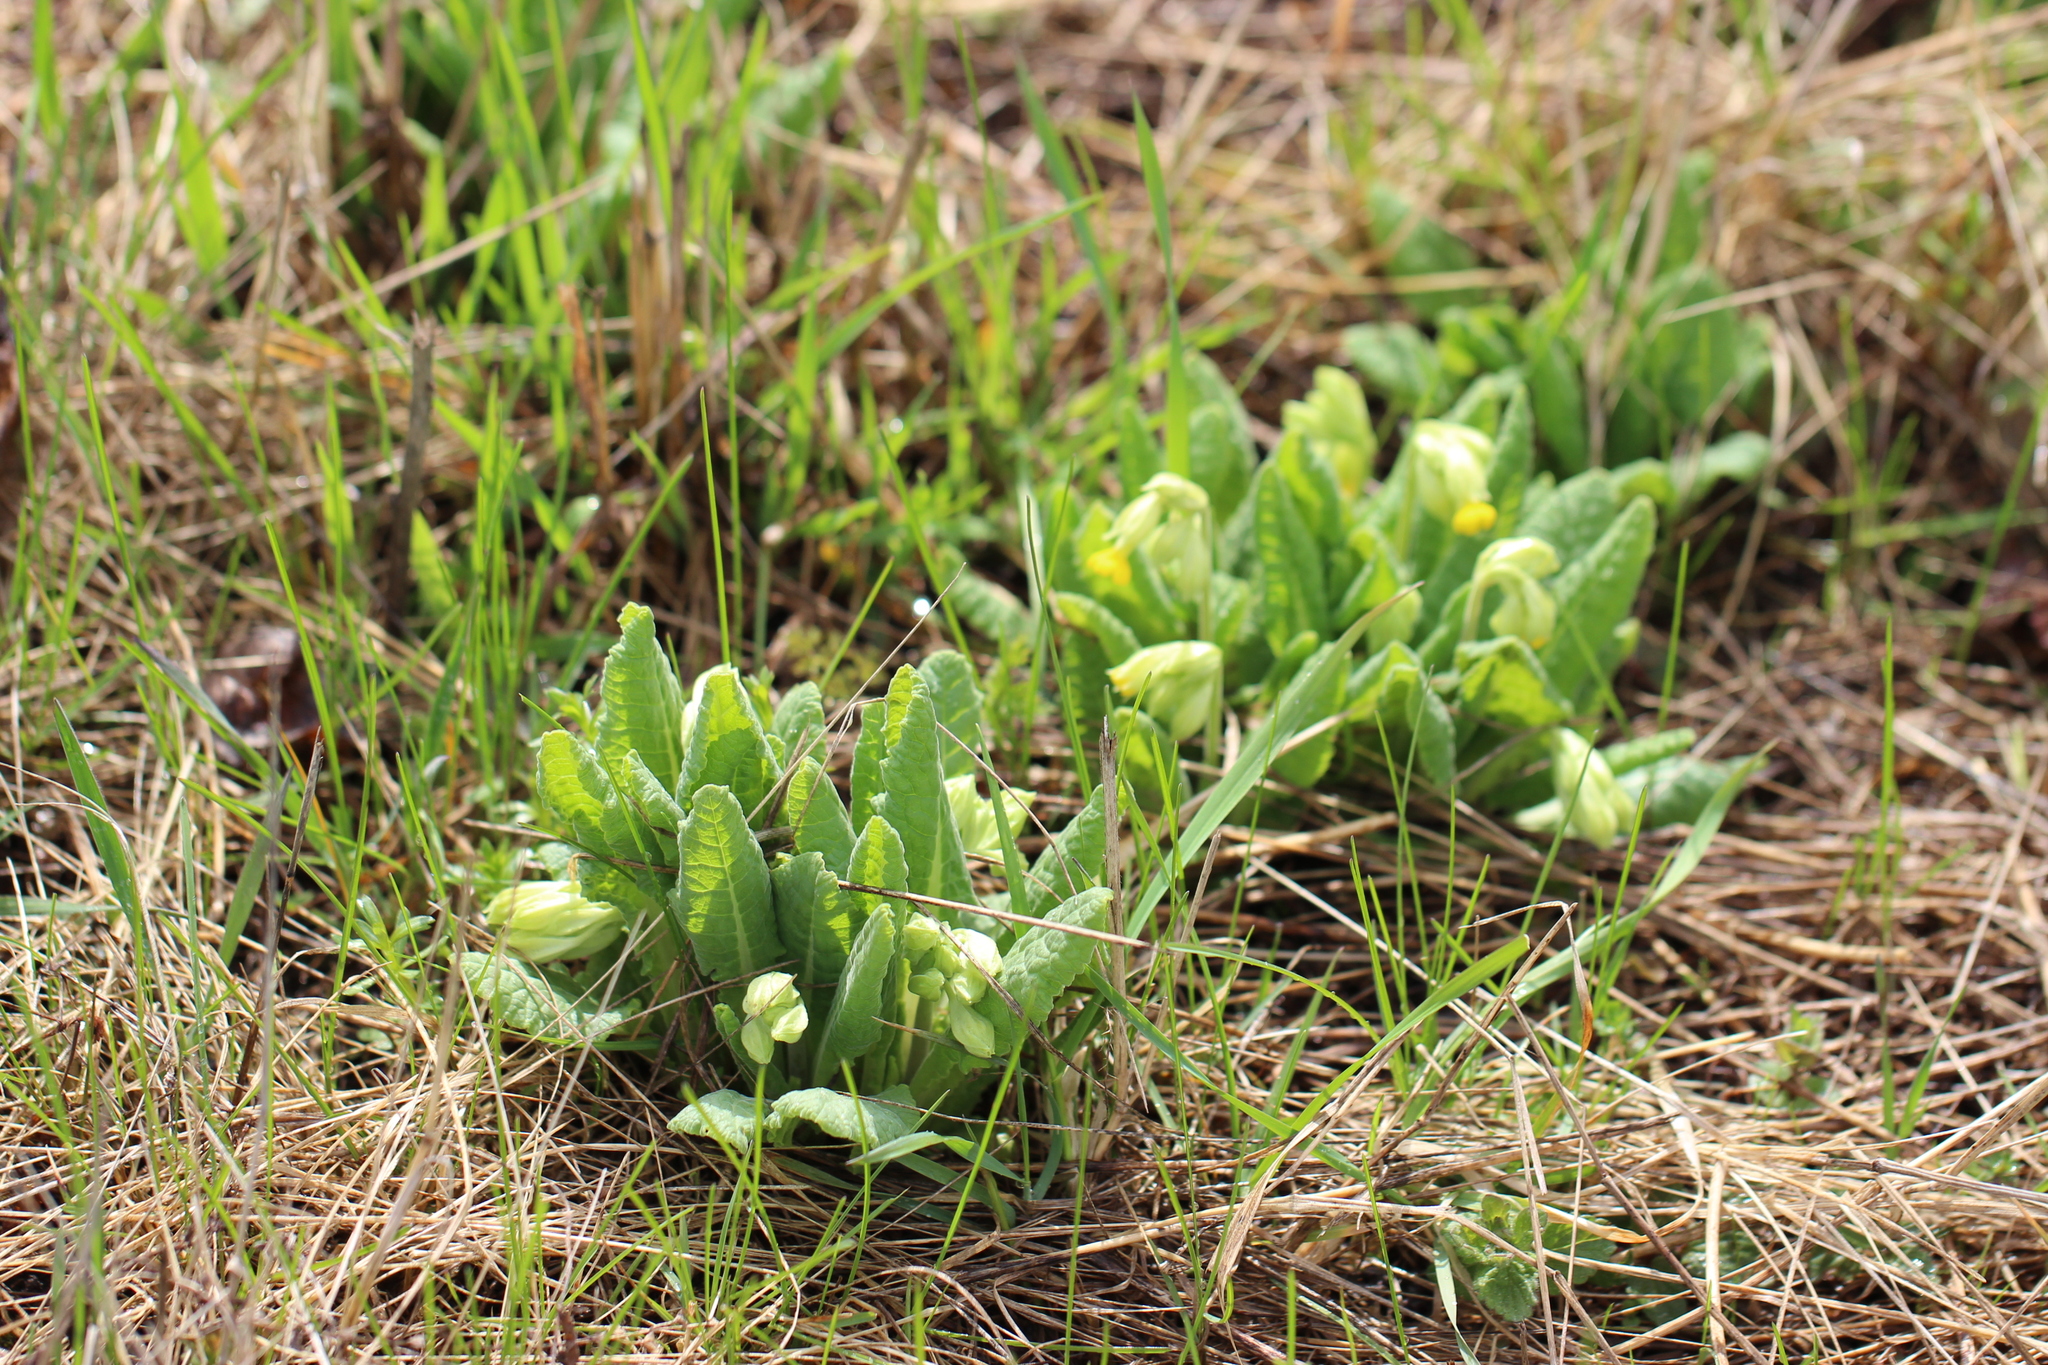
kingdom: Plantae
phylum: Tracheophyta
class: Magnoliopsida
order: Ericales
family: Primulaceae
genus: Primula
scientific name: Primula veris
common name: Cowslip
